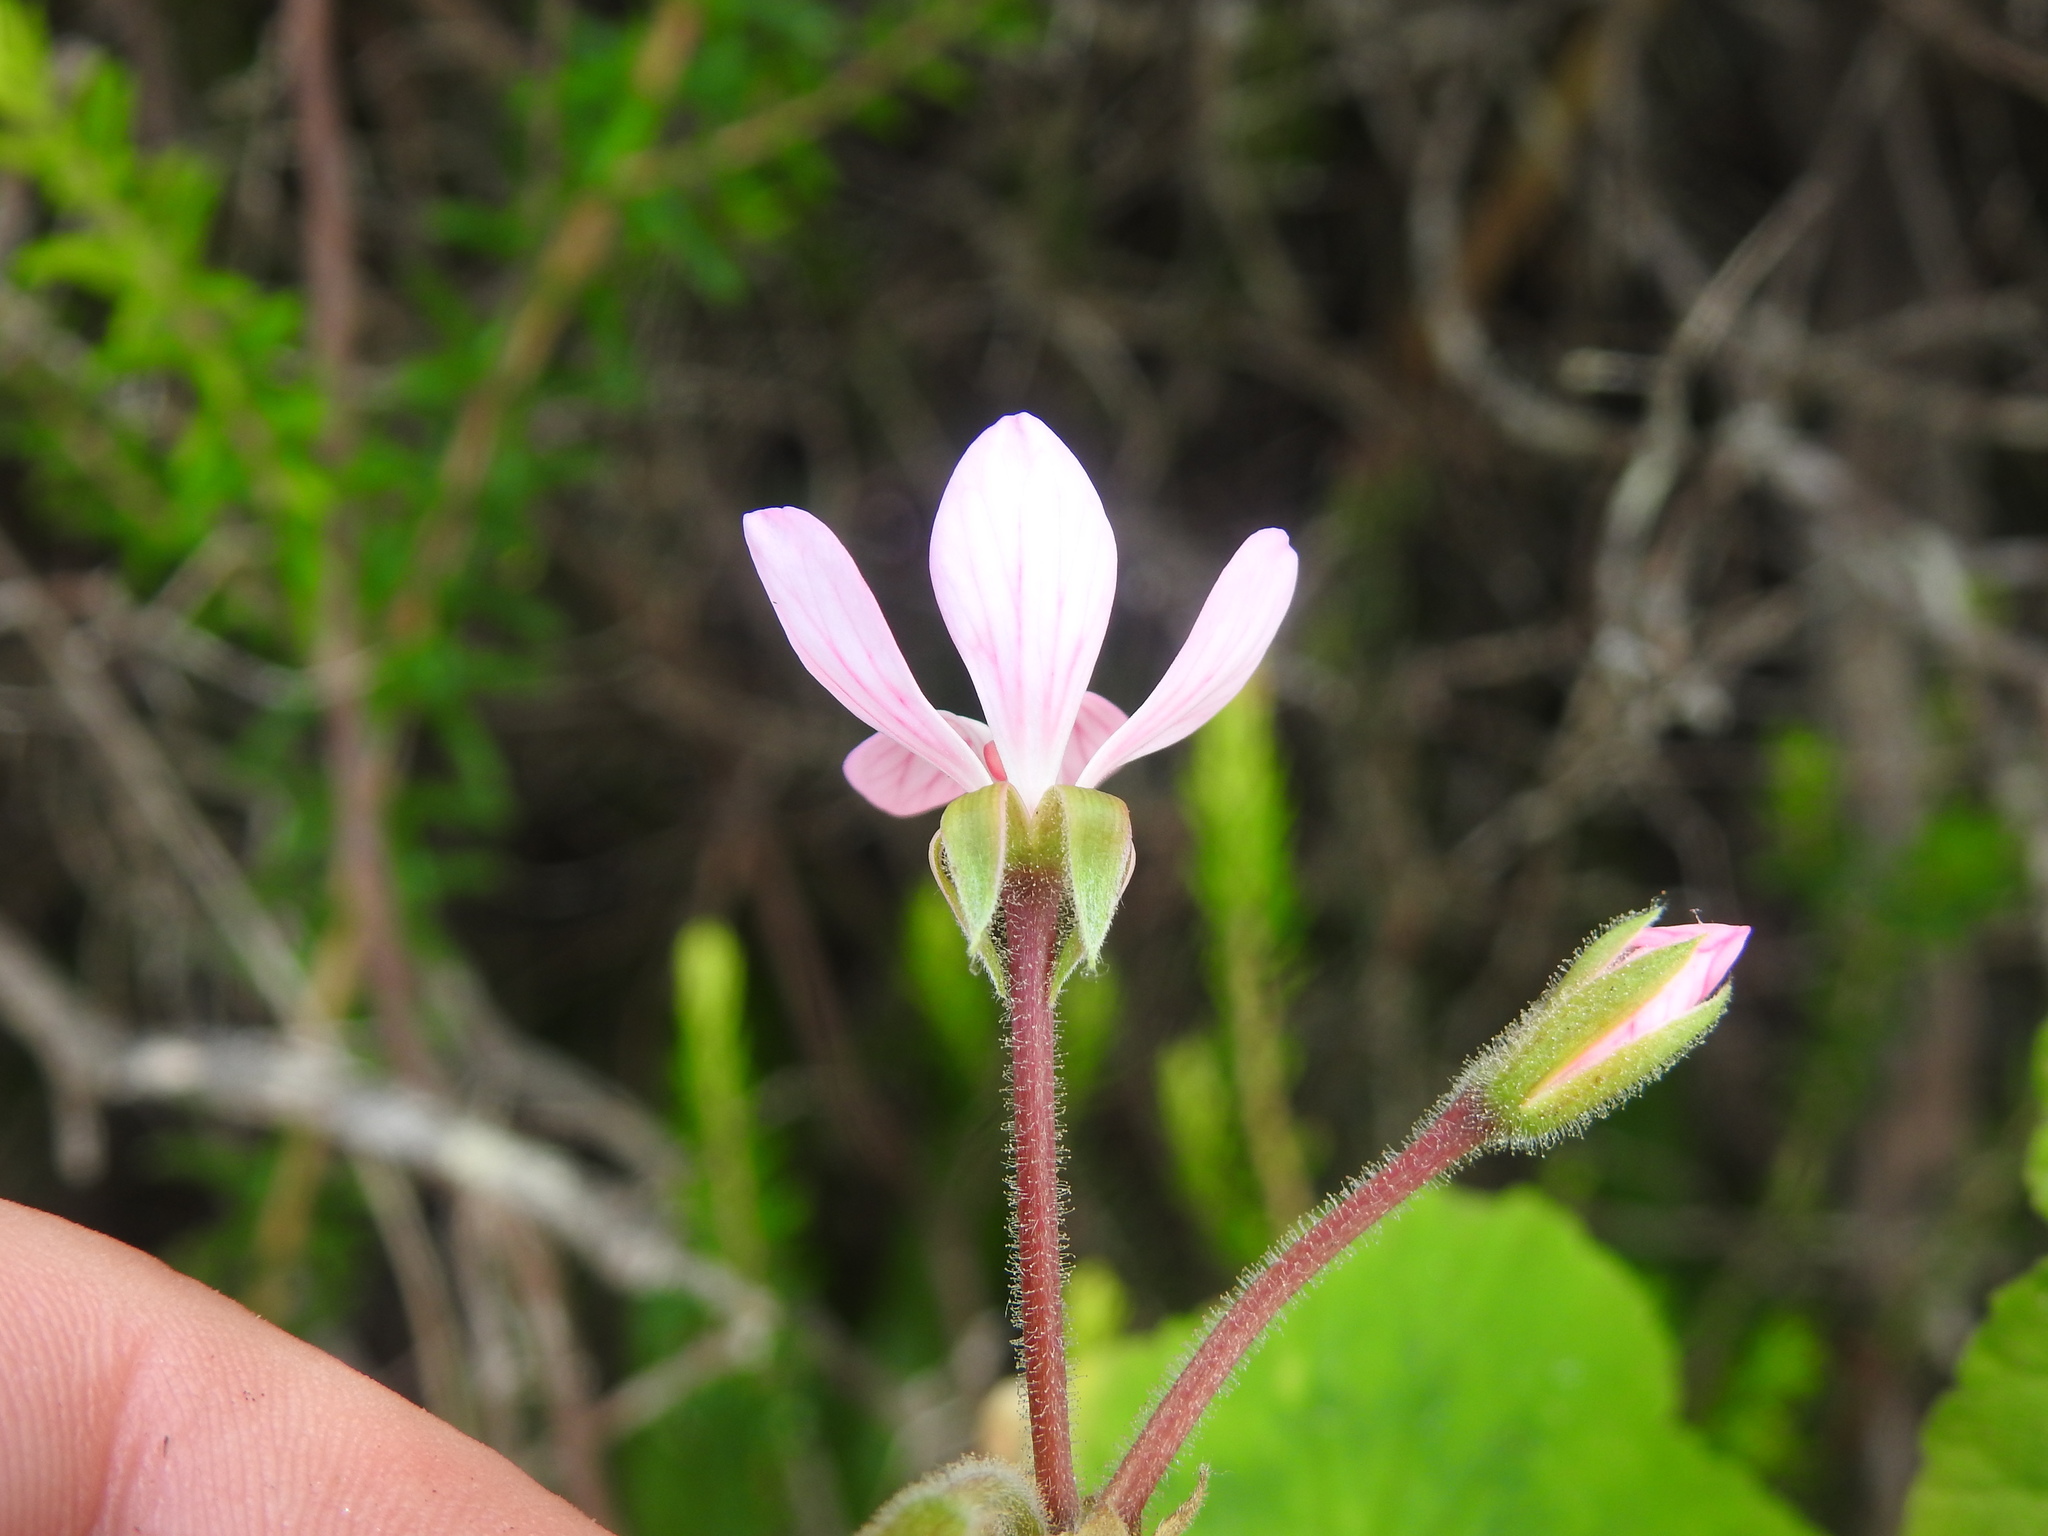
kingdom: Plantae
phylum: Tracheophyta
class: Magnoliopsida
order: Geraniales
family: Geraniaceae
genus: Pelargonium
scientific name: Pelargonium zonale
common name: Horseshoe geranium
